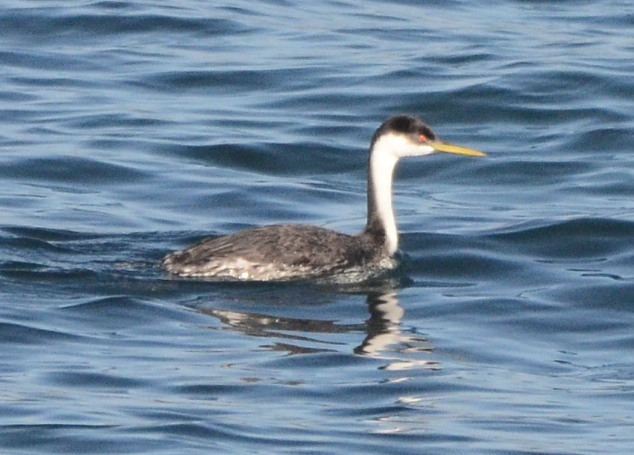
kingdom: Animalia
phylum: Chordata
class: Aves
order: Podicipediformes
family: Podicipedidae
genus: Aechmophorus
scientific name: Aechmophorus occidentalis
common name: Western grebe
